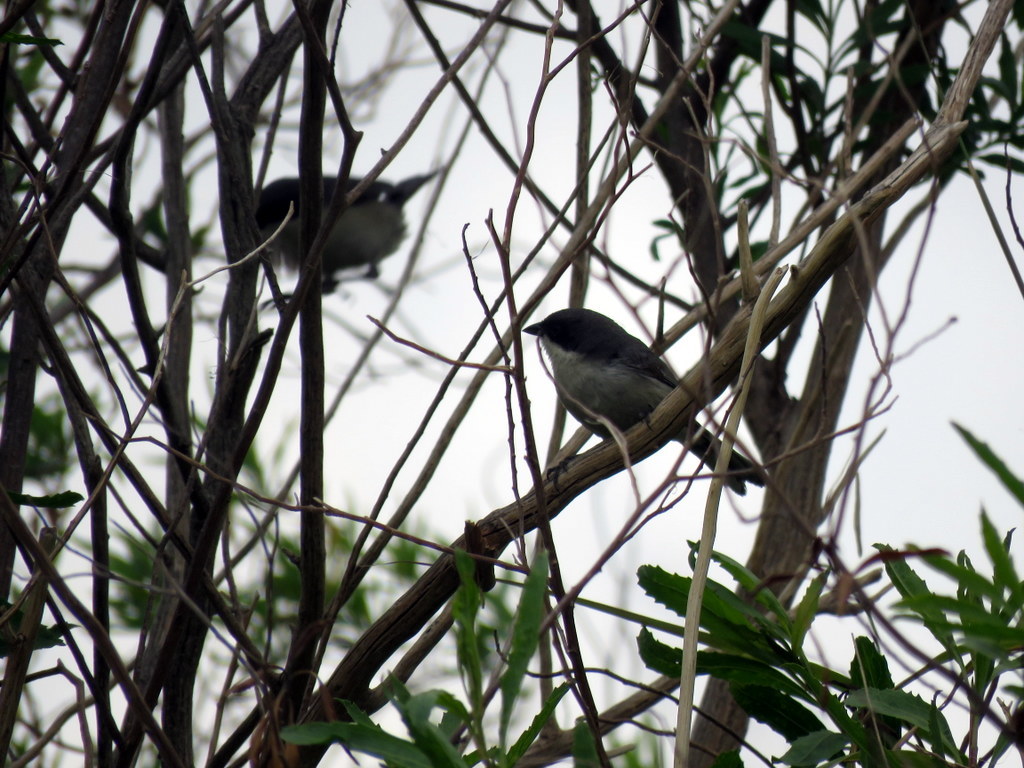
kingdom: Animalia
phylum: Chordata
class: Aves
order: Passeriformes
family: Thraupidae
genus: Microspingus
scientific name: Microspingus melanoleucus
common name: Black-capped warbling-finch
